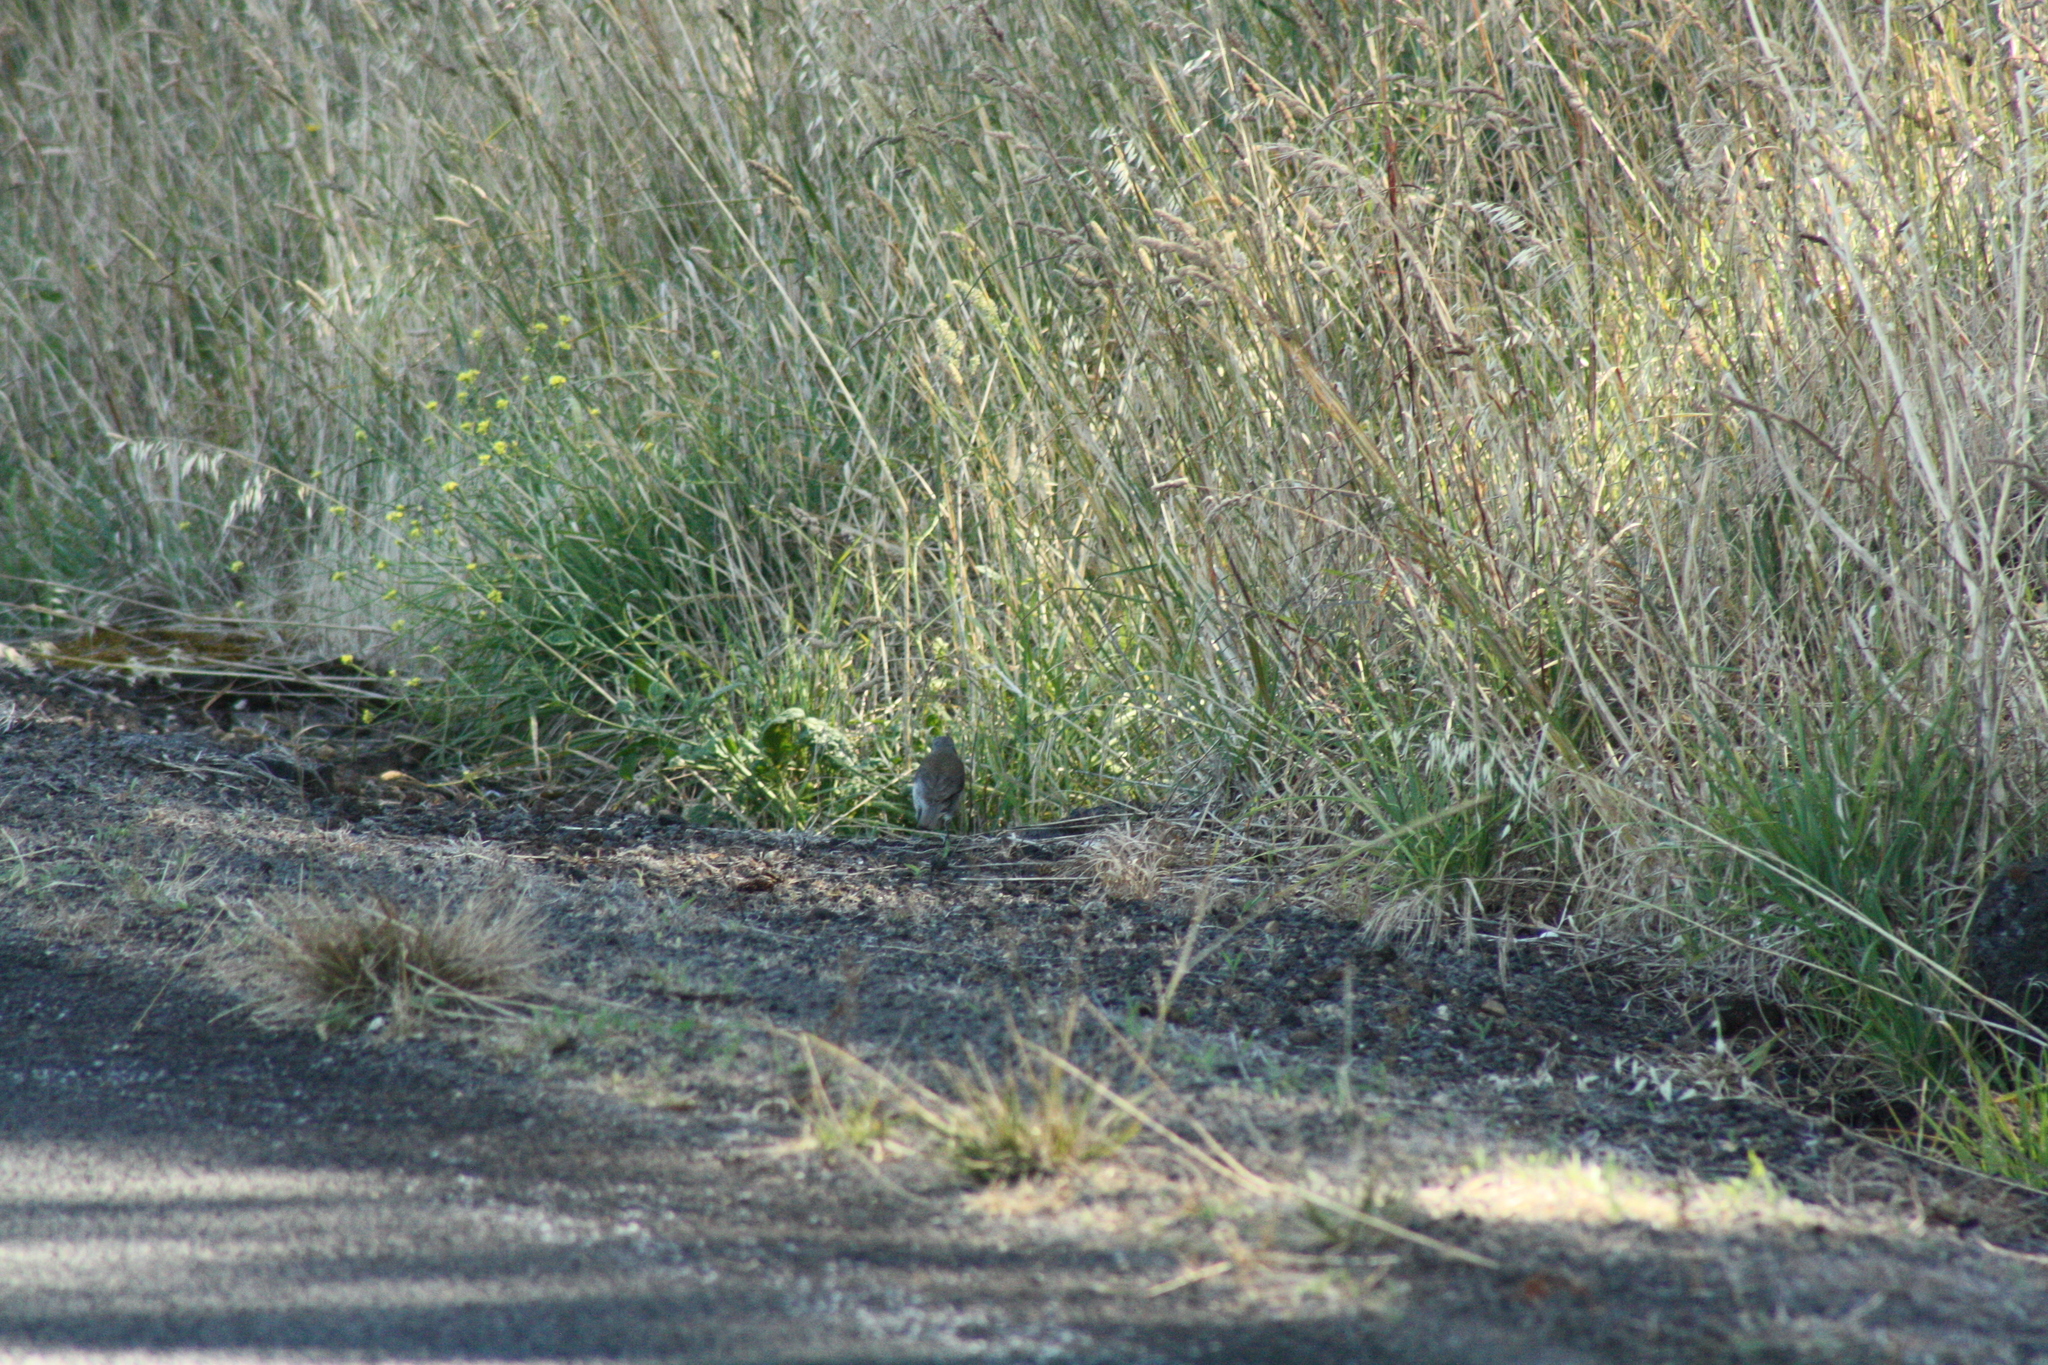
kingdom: Animalia
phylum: Chordata
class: Aves
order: Passeriformes
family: Pachycephalidae
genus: Colluricincla
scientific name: Colluricincla harmonica
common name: Grey shrikethrush
